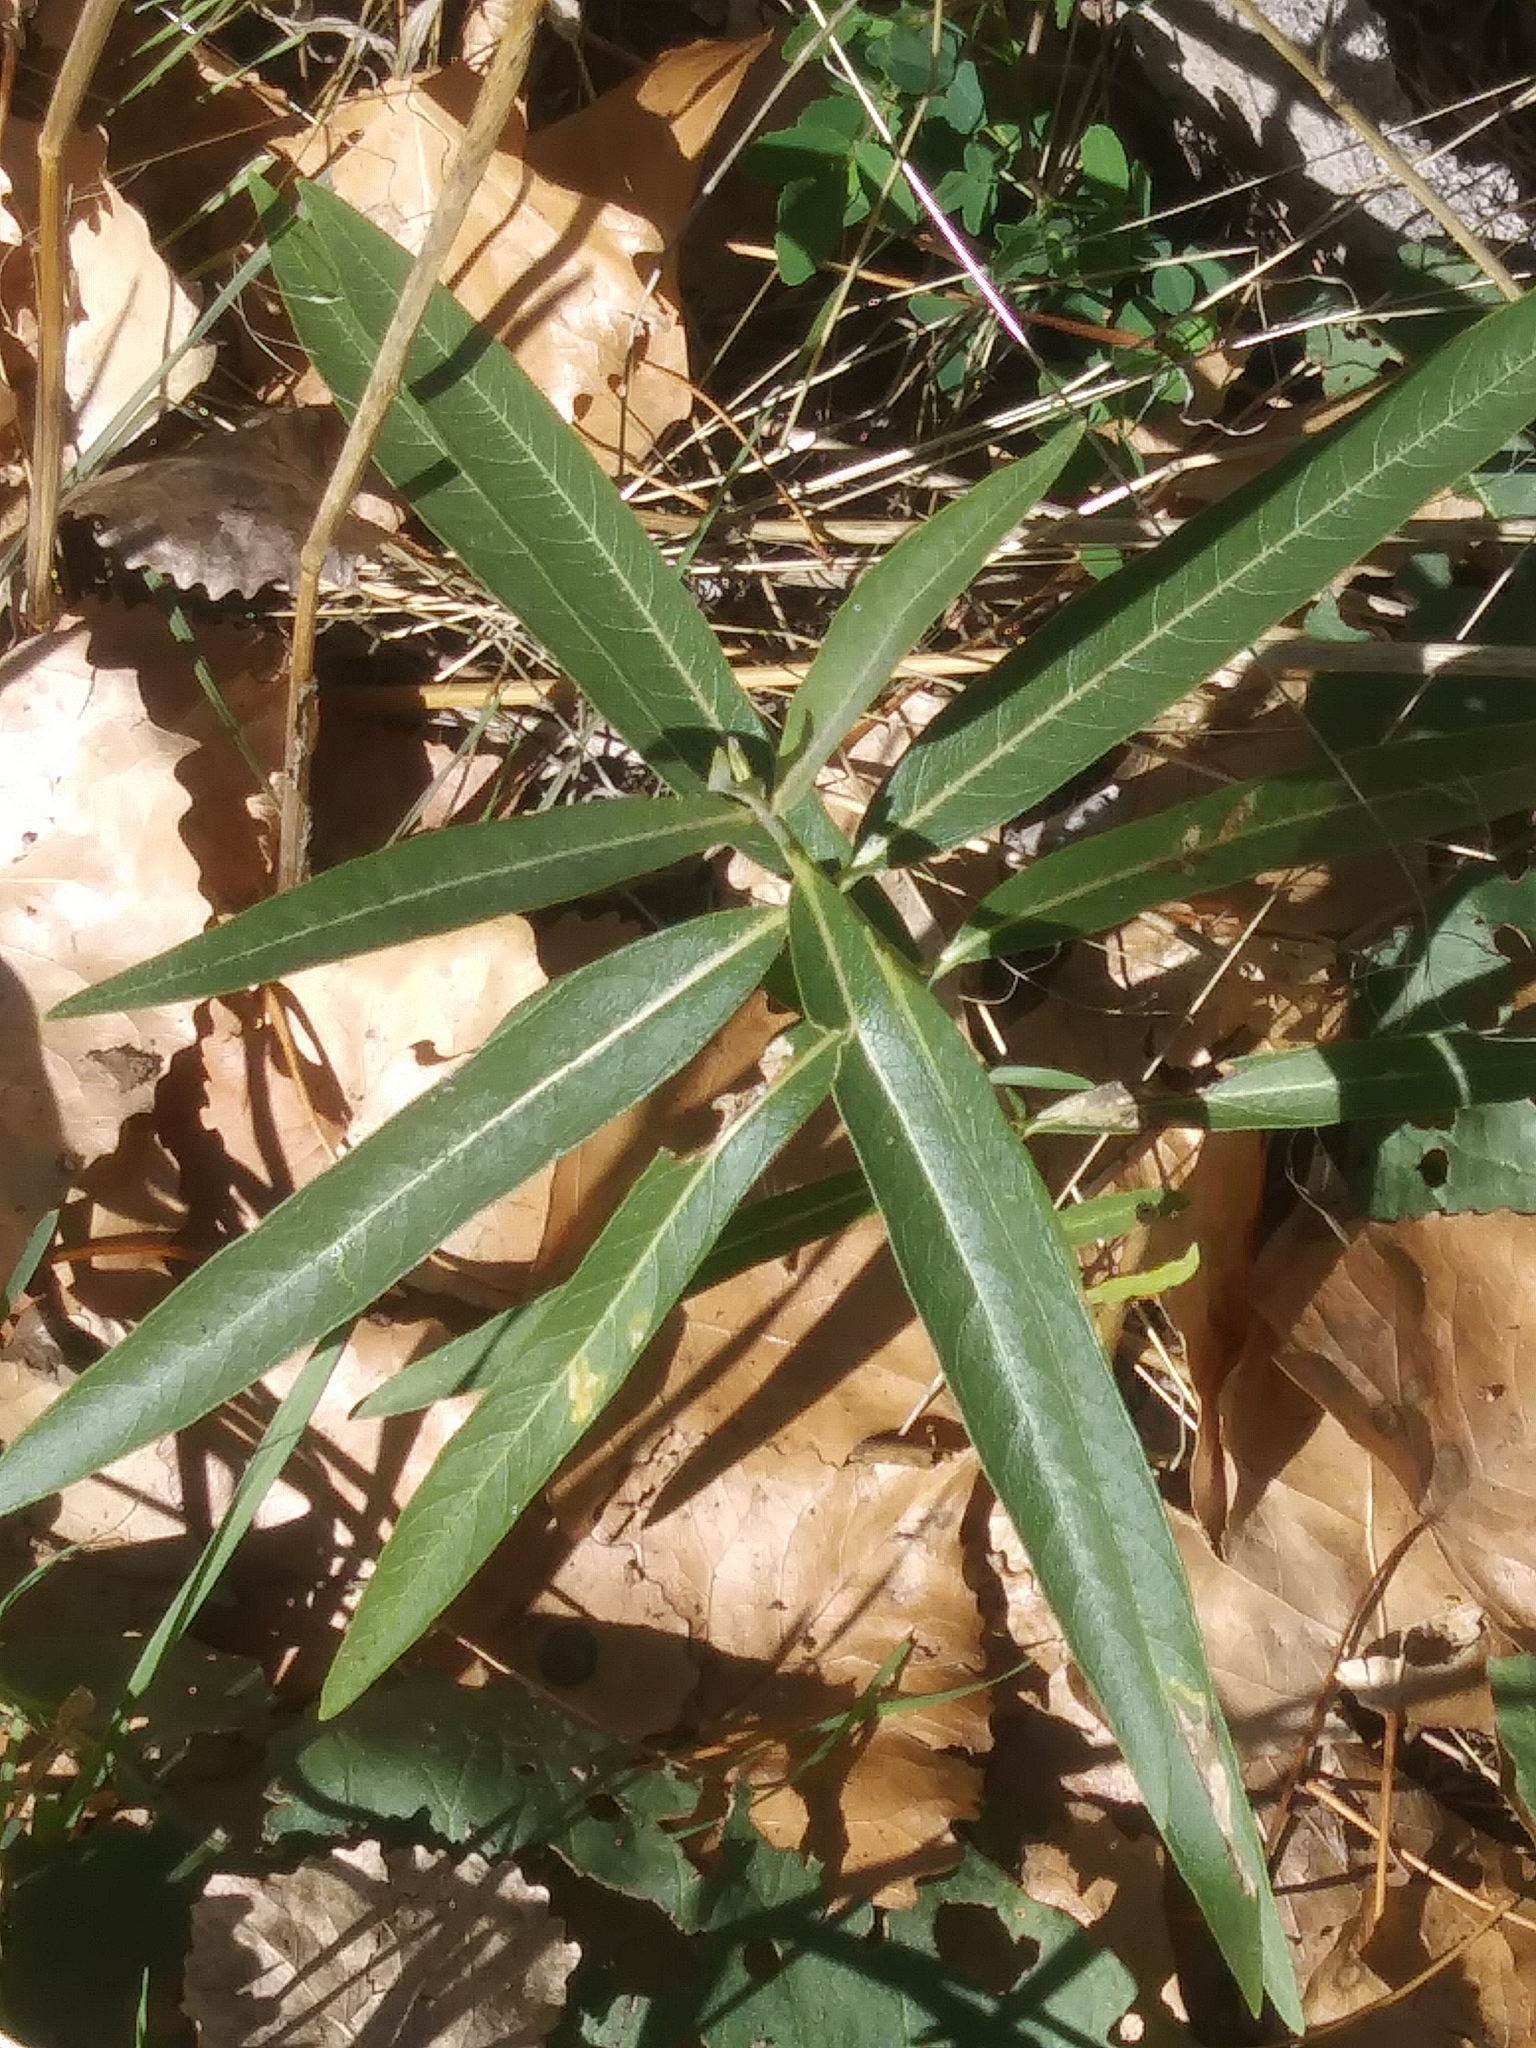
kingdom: Plantae
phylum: Tracheophyta
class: Magnoliopsida
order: Gentianales
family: Apocynaceae
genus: Asclepias
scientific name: Asclepias speciosa
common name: Showy milkweed
